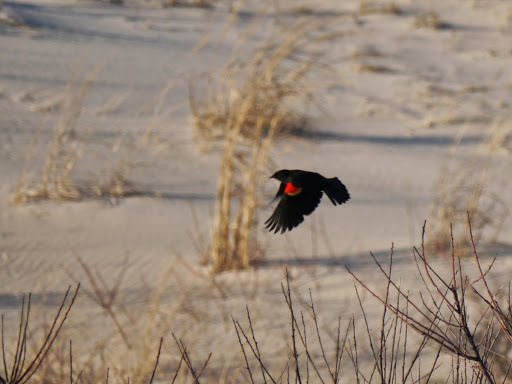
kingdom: Animalia
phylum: Chordata
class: Aves
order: Passeriformes
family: Icteridae
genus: Agelaius
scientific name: Agelaius phoeniceus
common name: Red-winged blackbird
